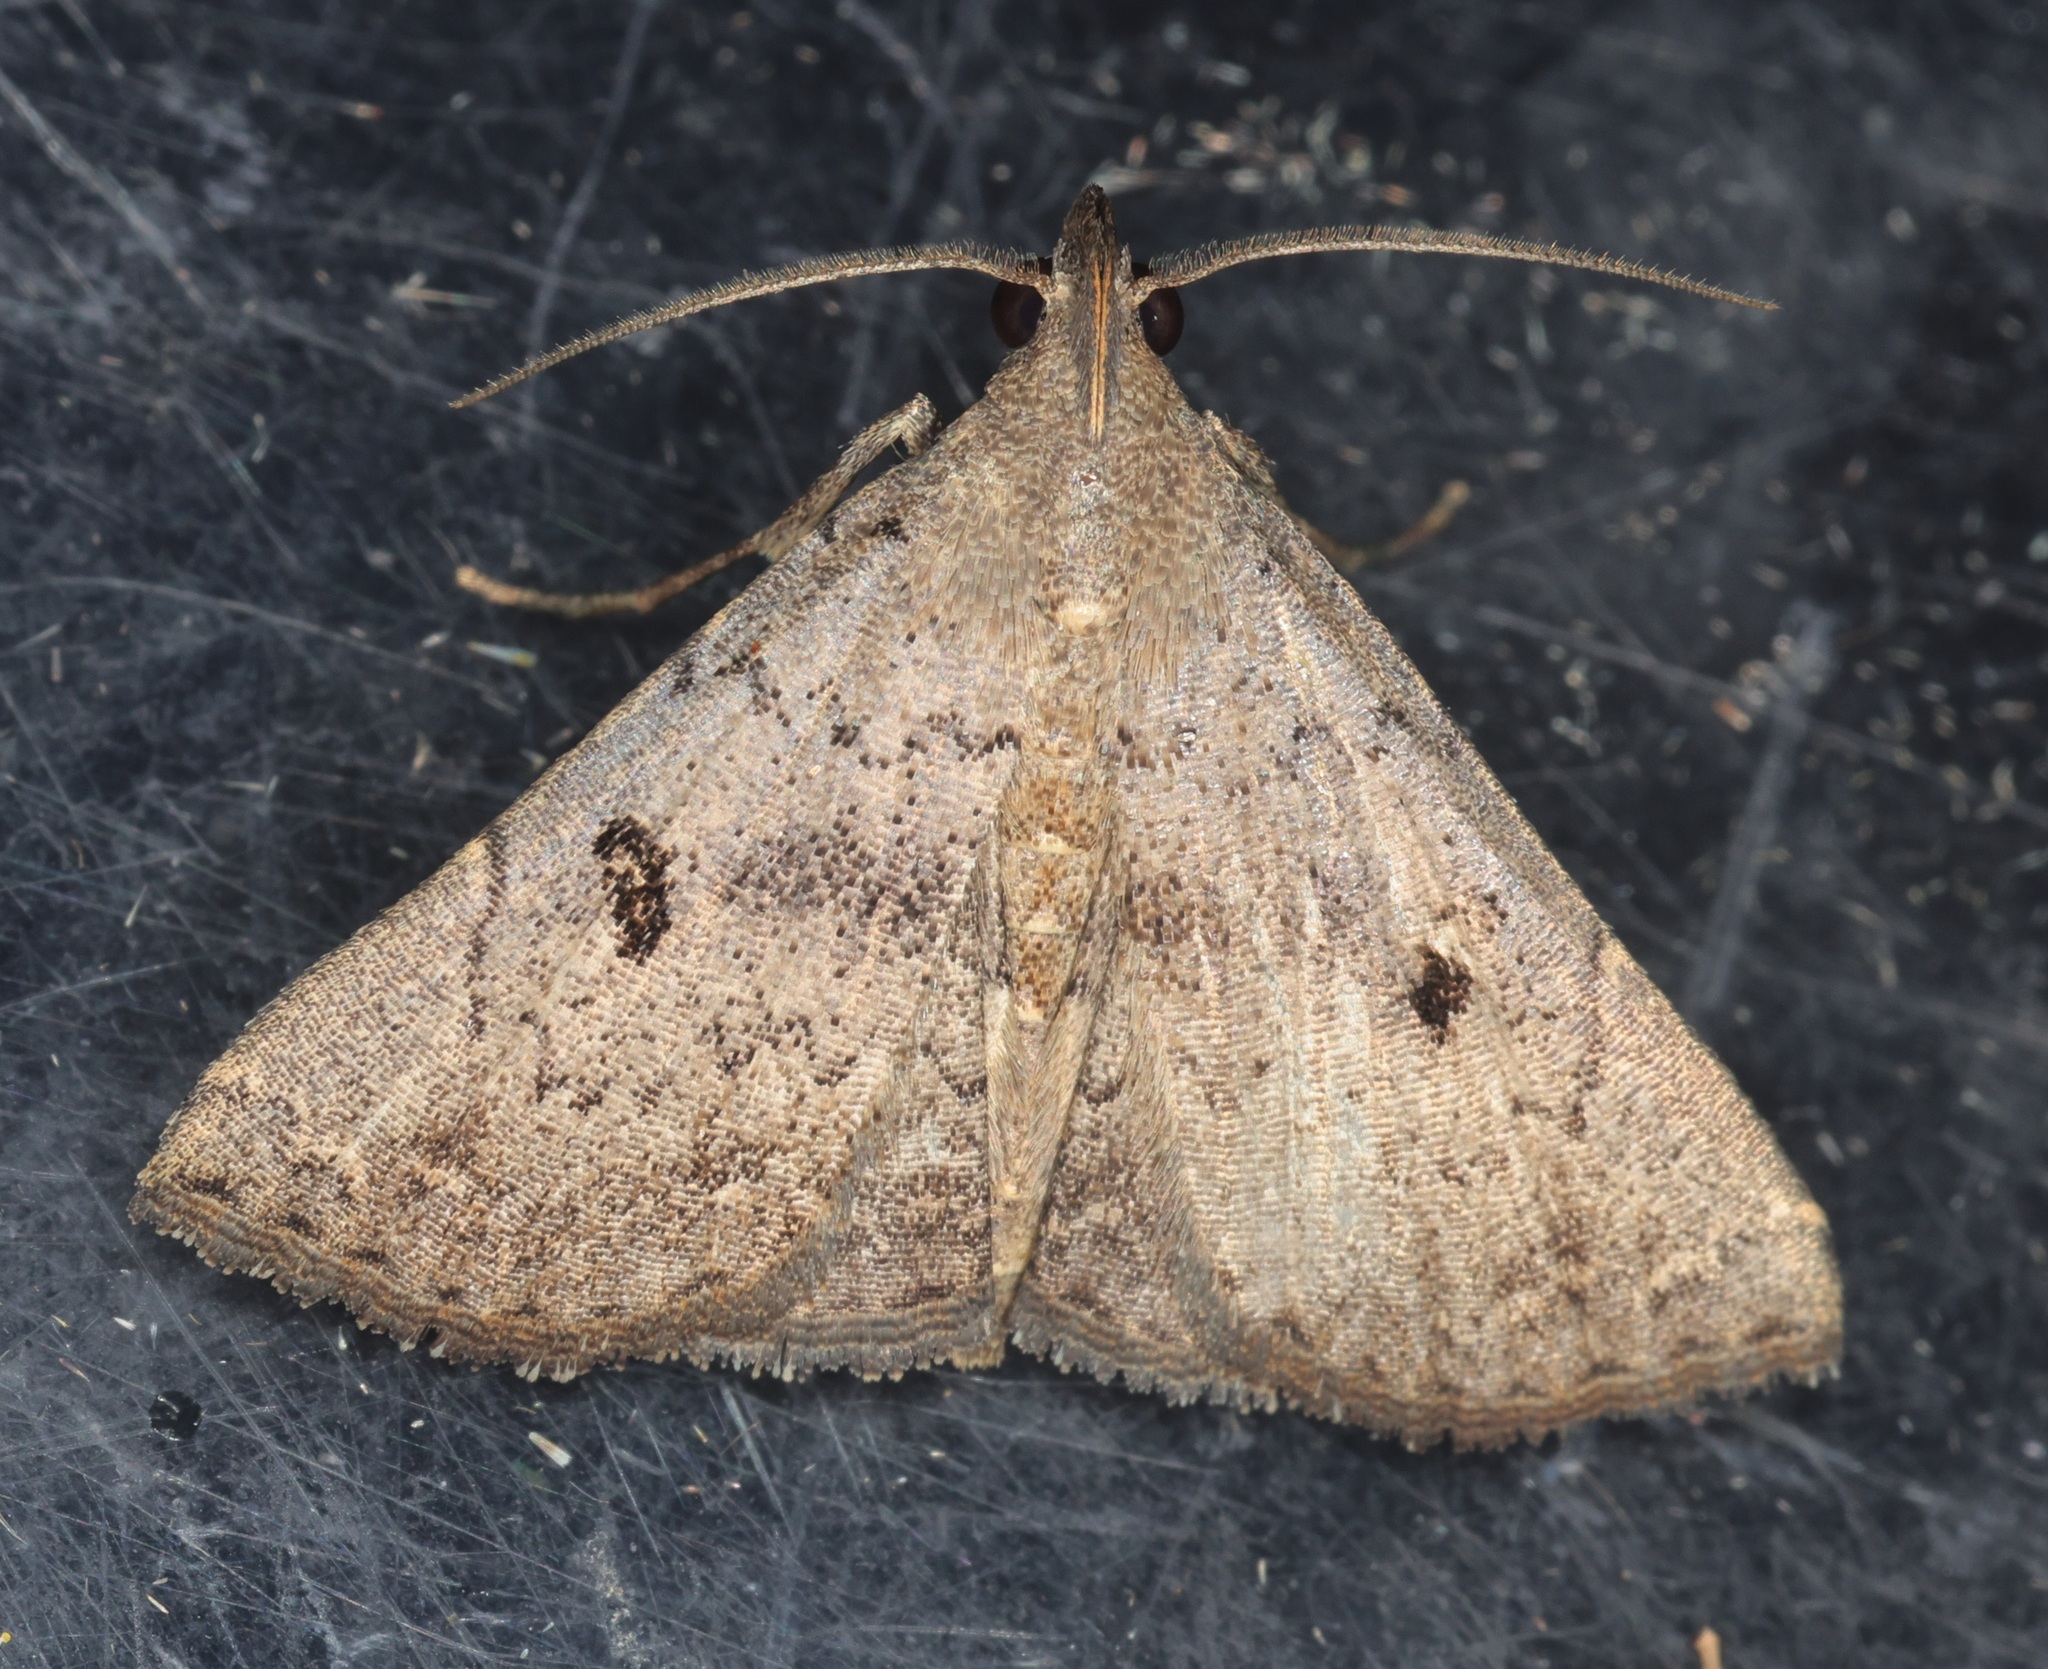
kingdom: Animalia
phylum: Arthropoda
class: Insecta
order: Lepidoptera
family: Erebidae
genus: Progonia
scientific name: Progonia oileusalis
